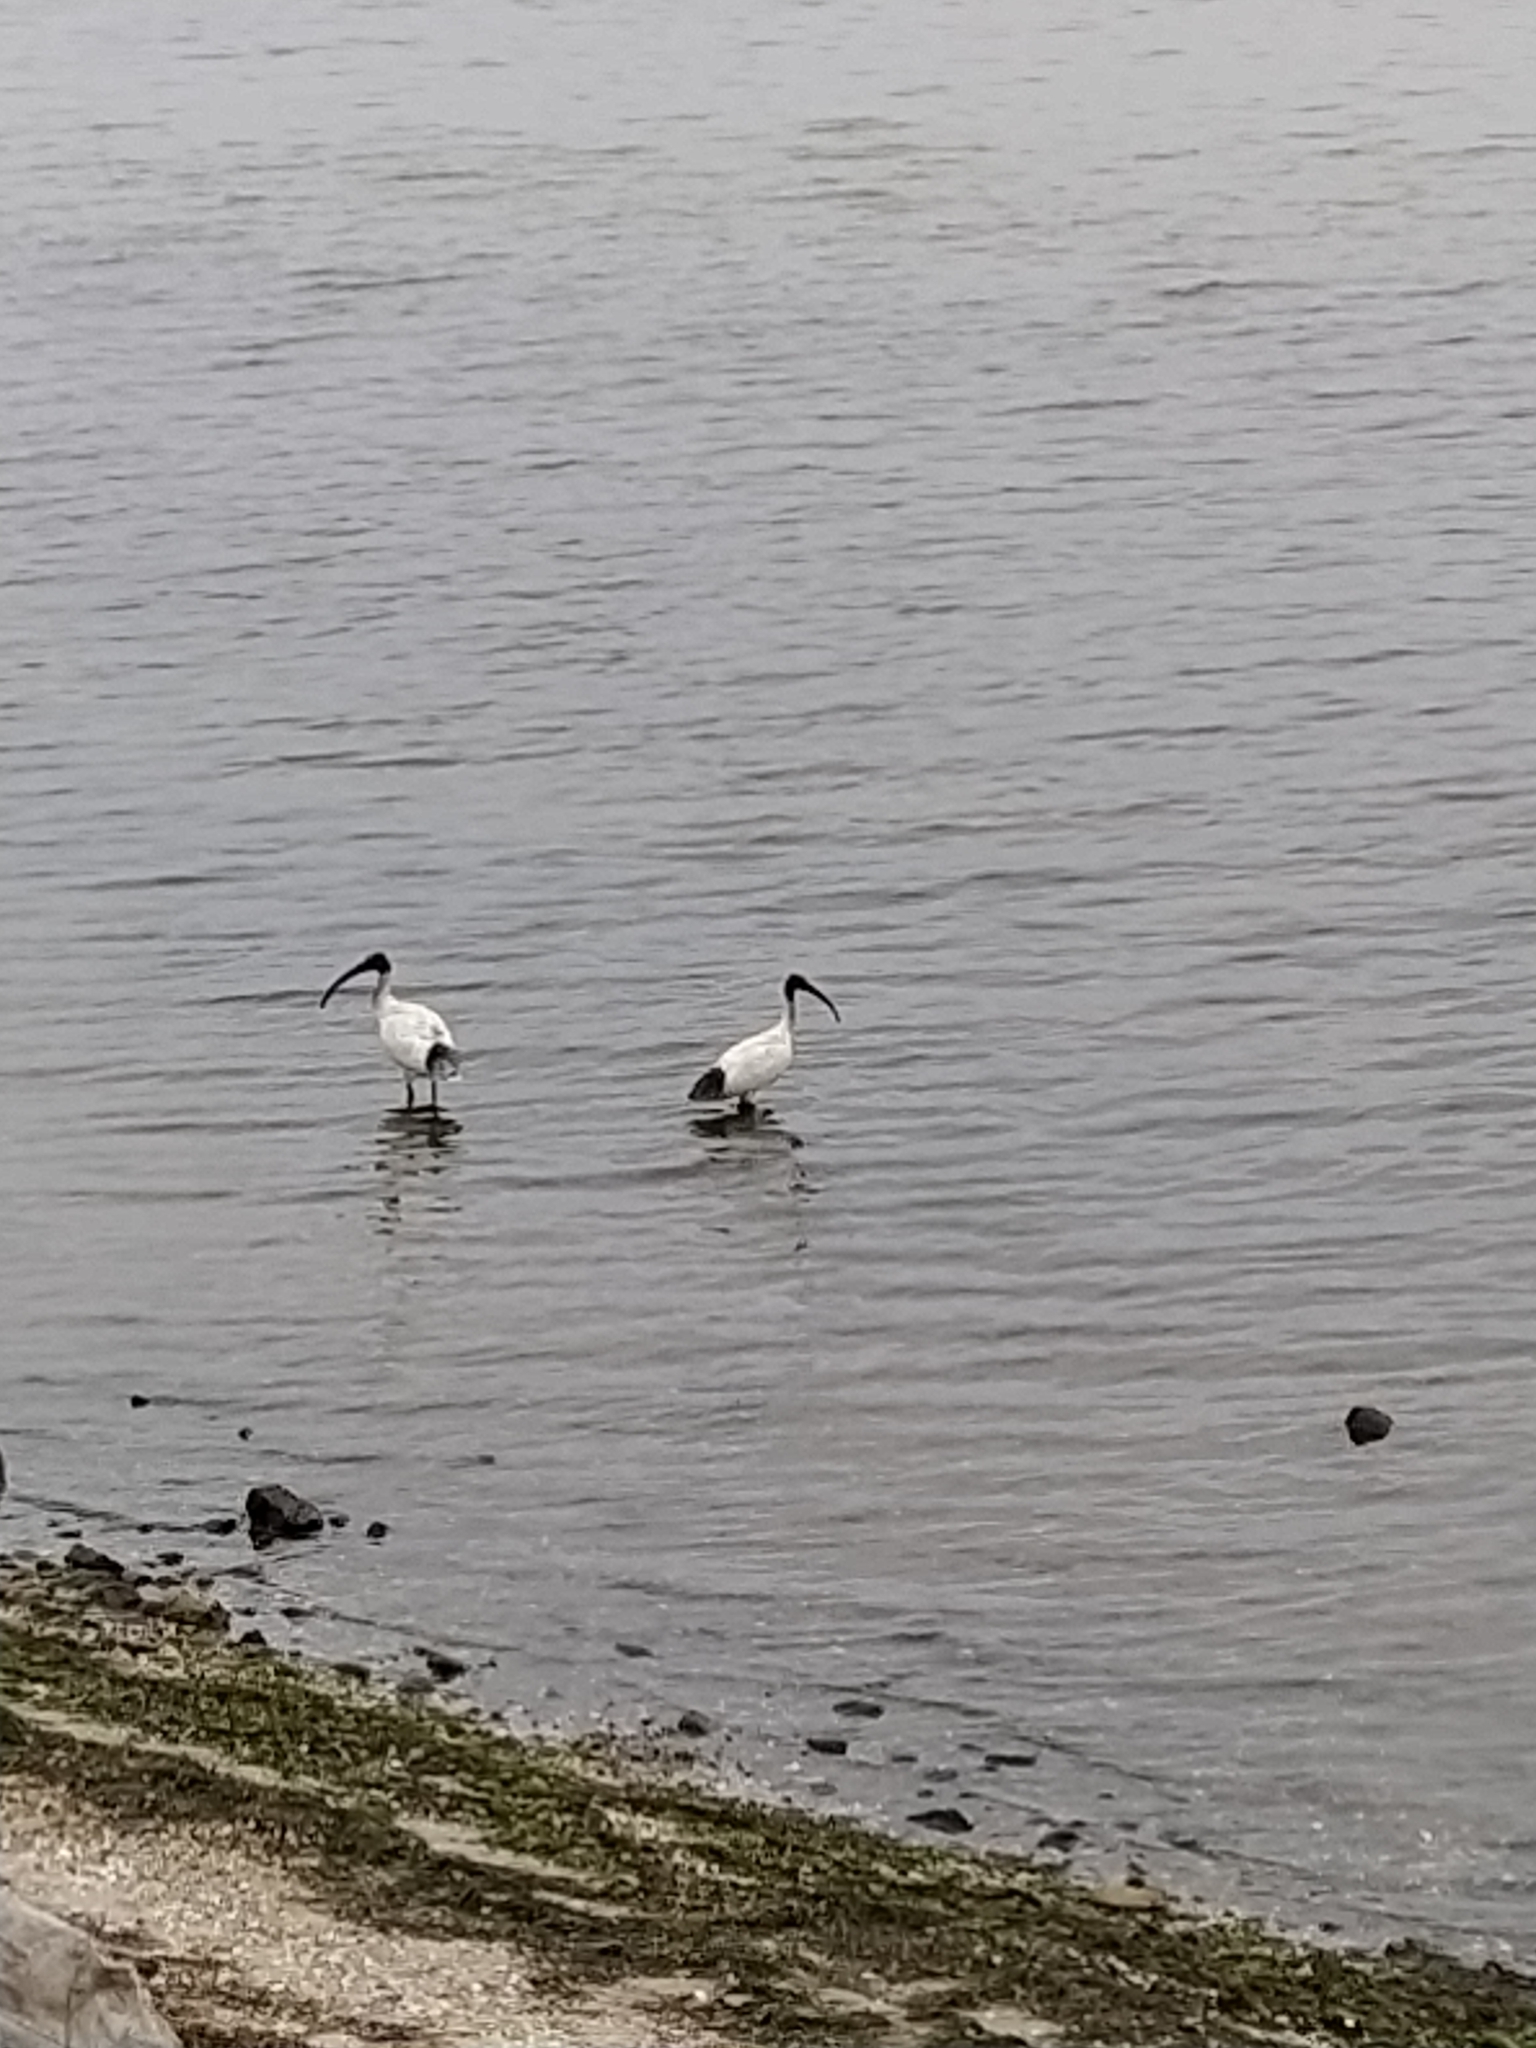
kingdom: Animalia
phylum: Chordata
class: Aves
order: Pelecaniformes
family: Threskiornithidae
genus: Threskiornis
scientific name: Threskiornis molucca
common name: Australian white ibis
